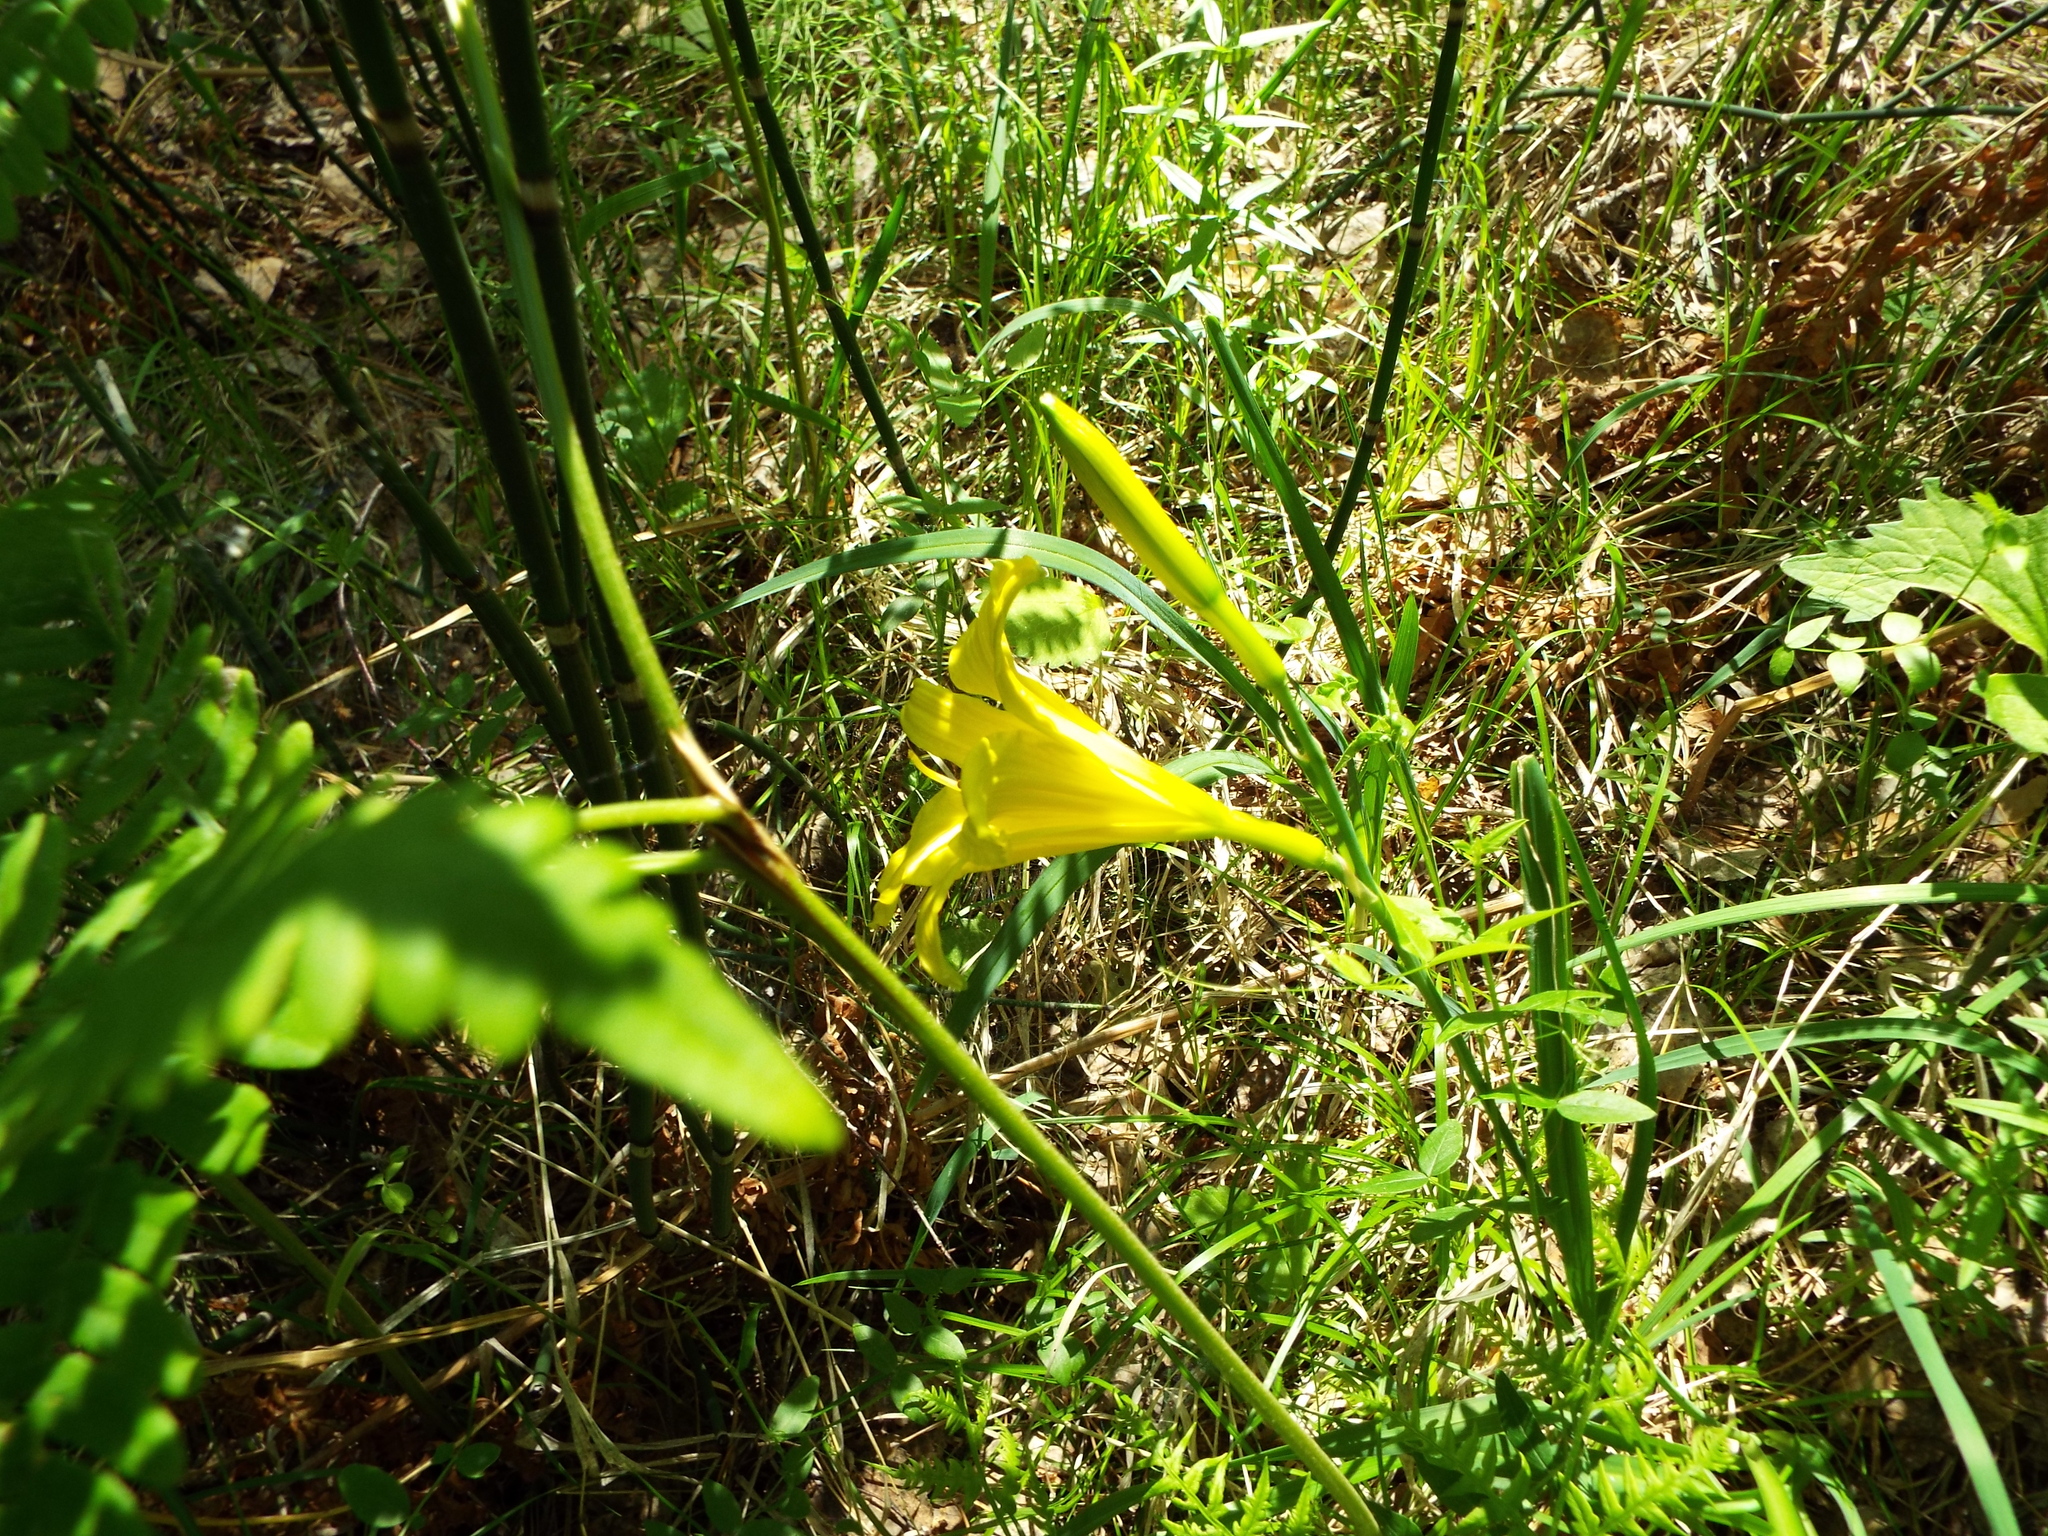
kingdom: Plantae
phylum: Tracheophyta
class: Liliopsida
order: Asparagales
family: Asphodelaceae
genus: Hemerocallis
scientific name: Hemerocallis minor
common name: Small daylily
